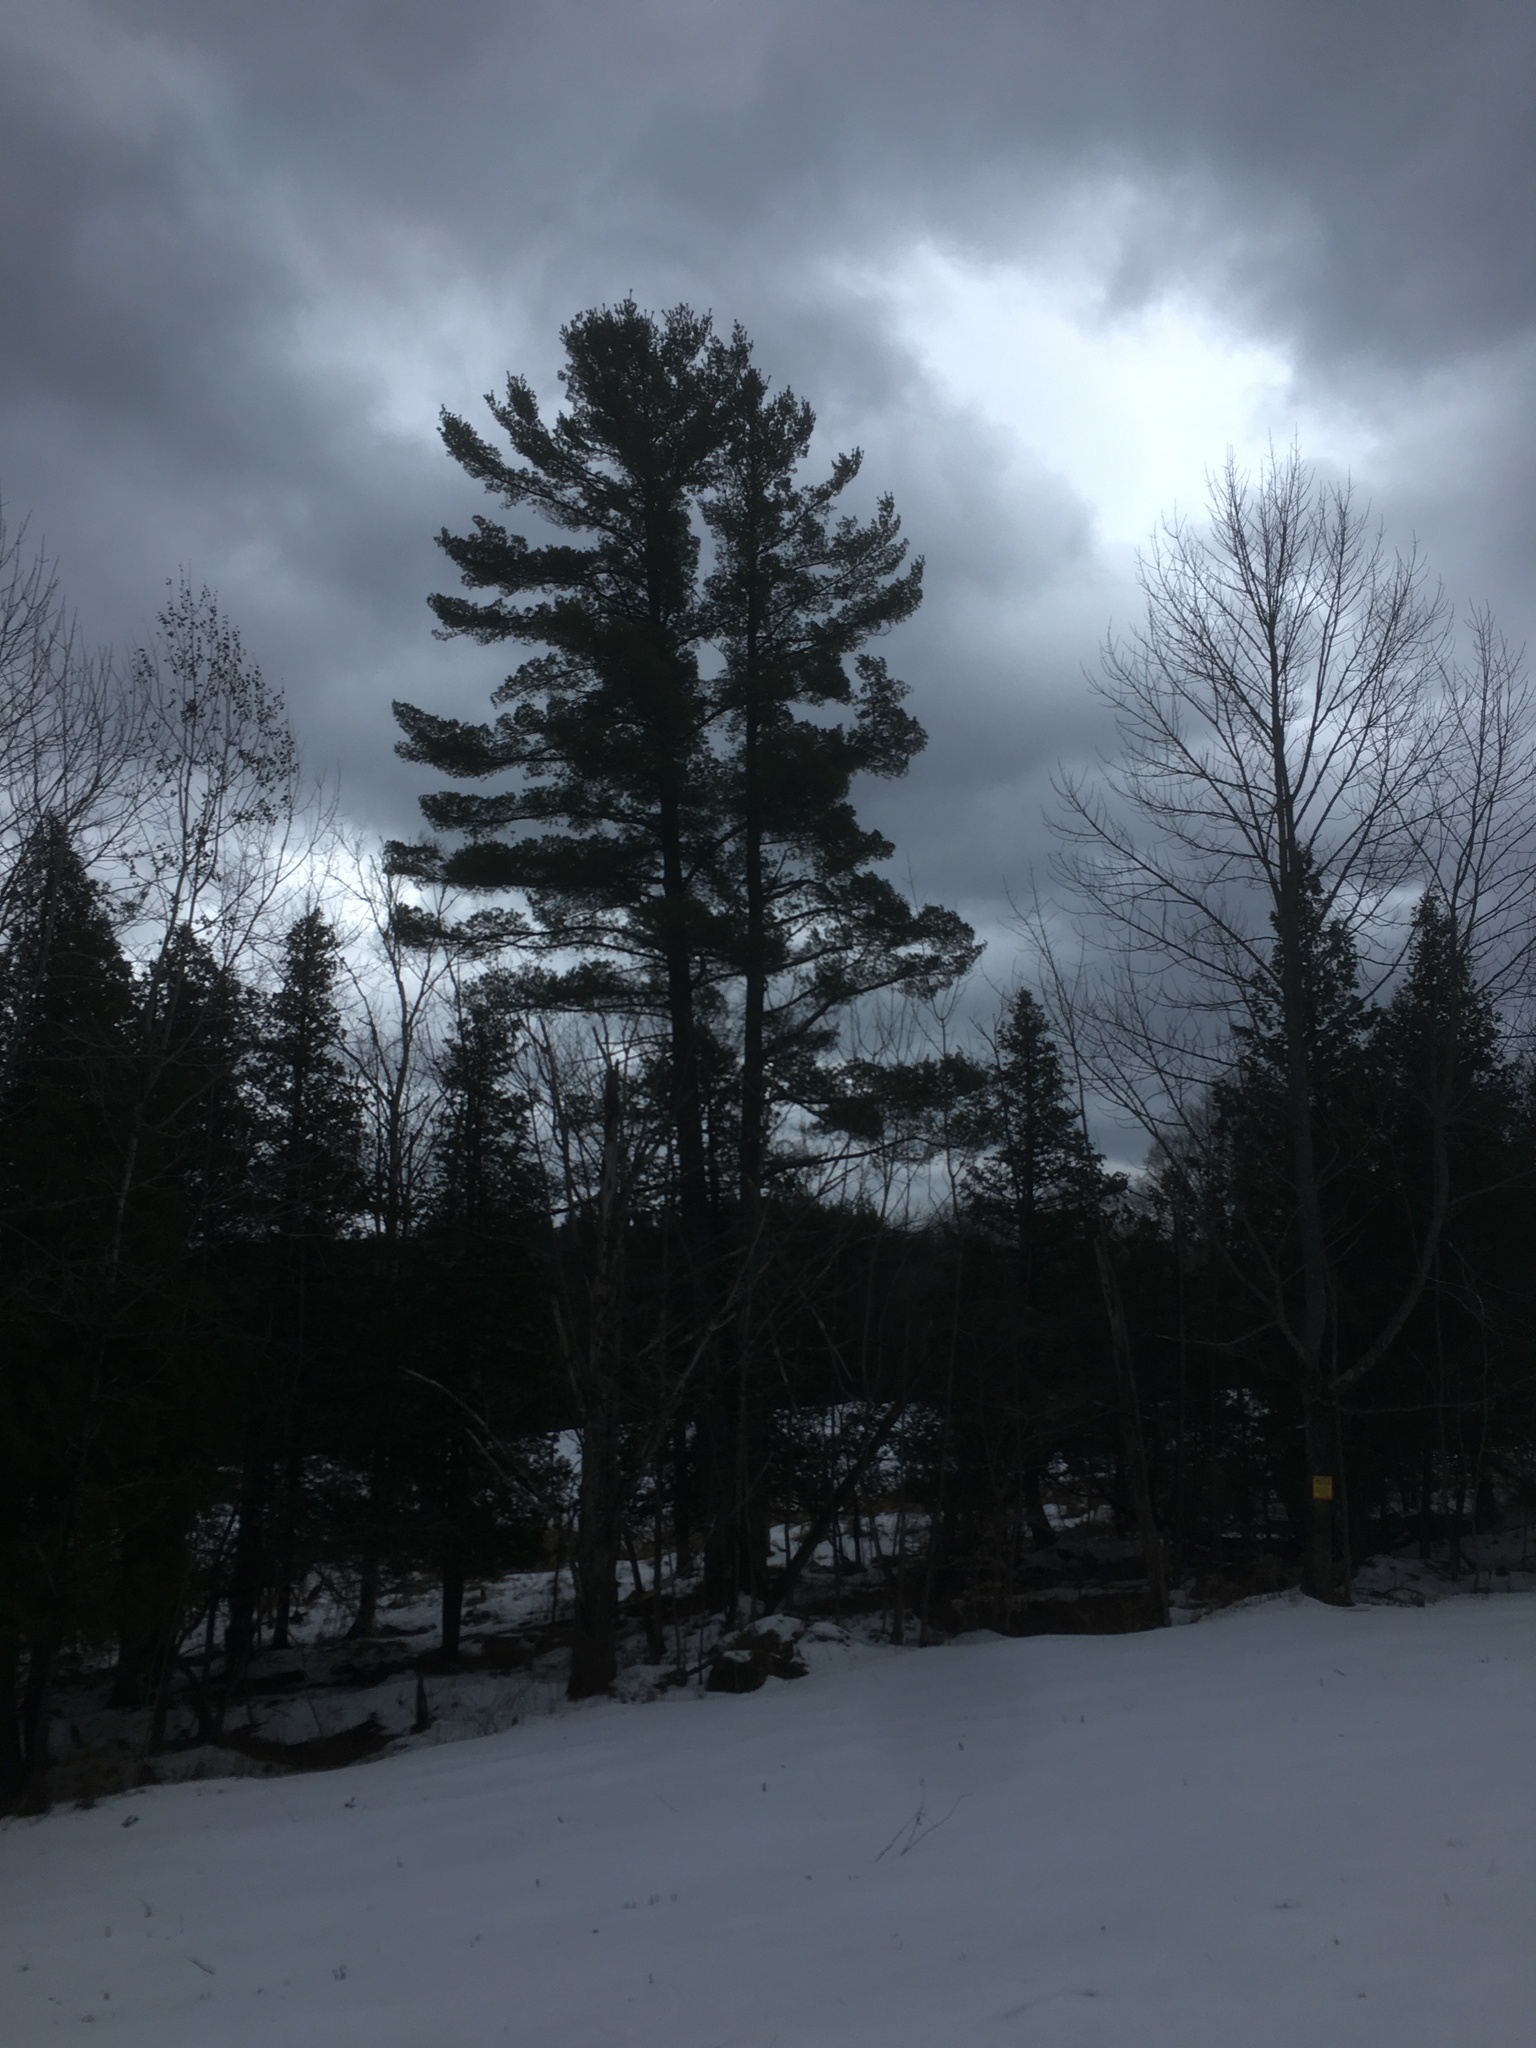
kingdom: Plantae
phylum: Tracheophyta
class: Pinopsida
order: Pinales
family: Pinaceae
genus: Pinus
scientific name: Pinus strobus
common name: Weymouth pine
